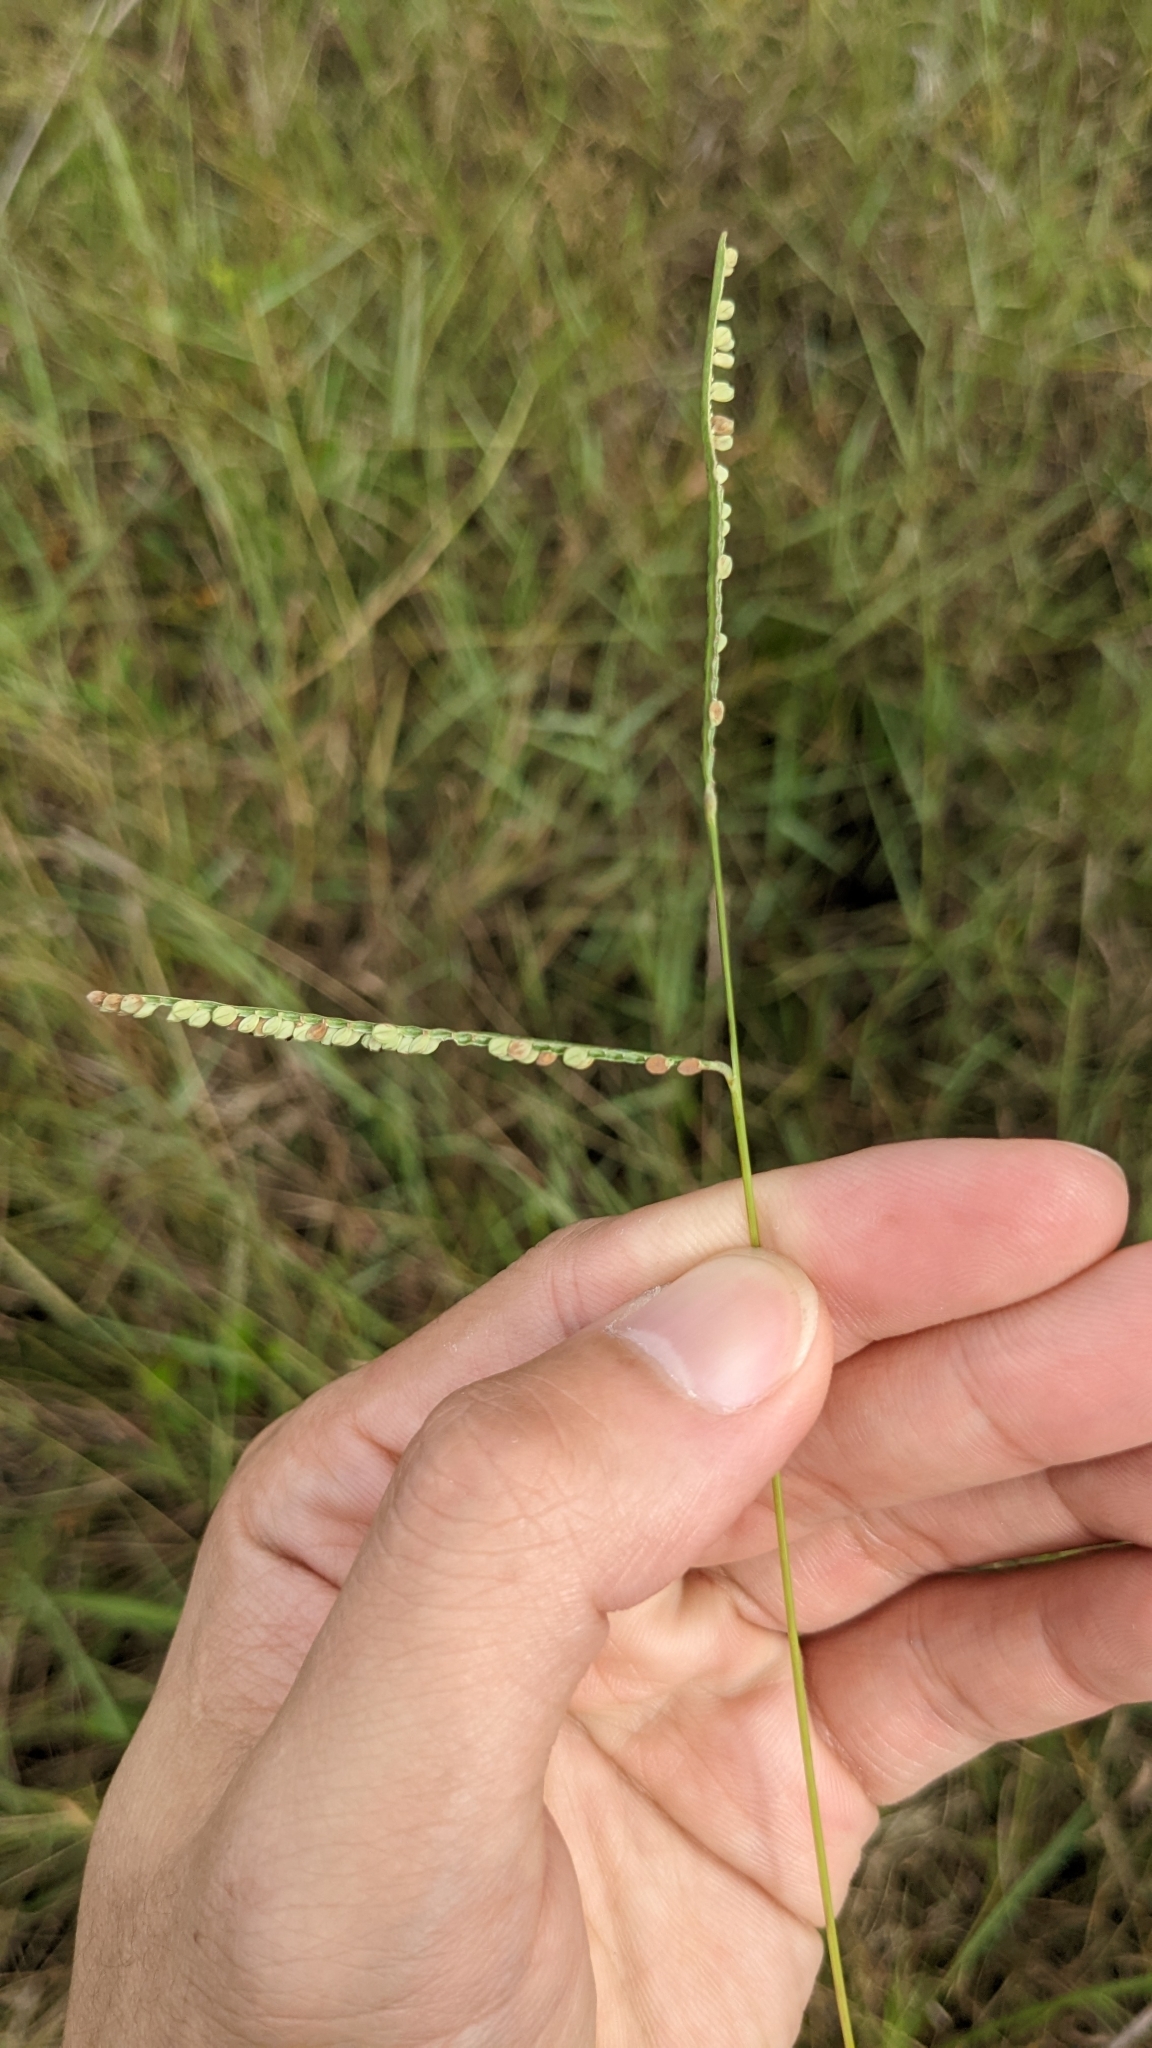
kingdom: Plantae
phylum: Tracheophyta
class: Liliopsida
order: Poales
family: Poaceae
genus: Paspalum
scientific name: Paspalum scrobiculatum
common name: Kodo millet
